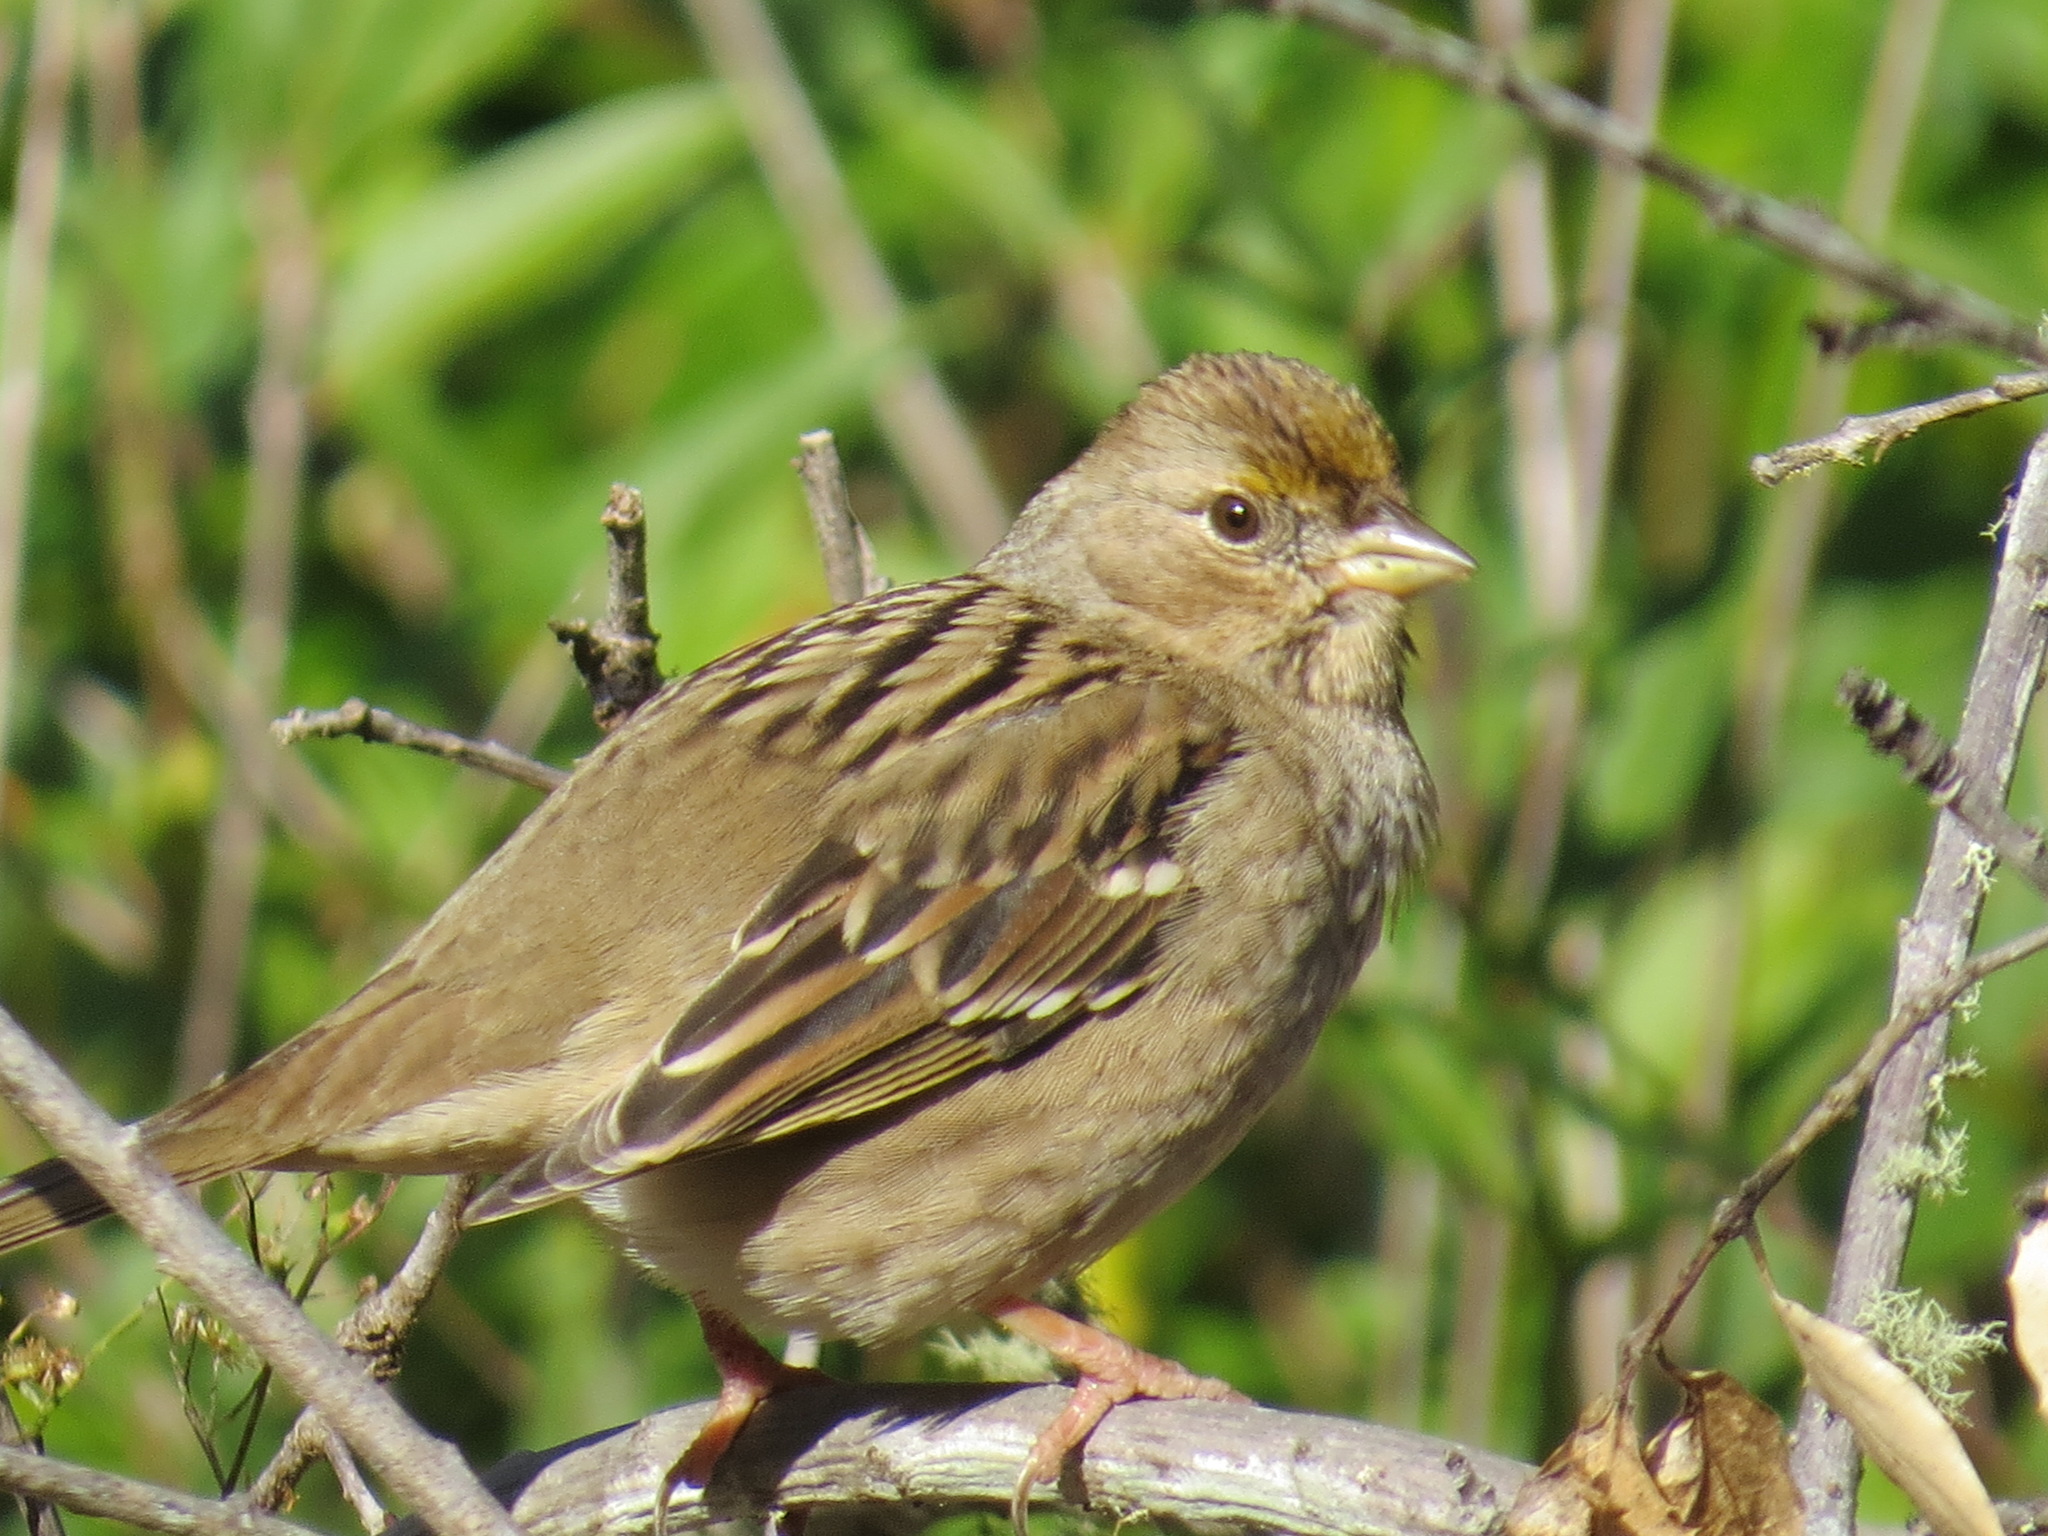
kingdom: Animalia
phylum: Chordata
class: Aves
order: Passeriformes
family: Passerellidae
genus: Zonotrichia
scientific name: Zonotrichia atricapilla
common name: Golden-crowned sparrow
